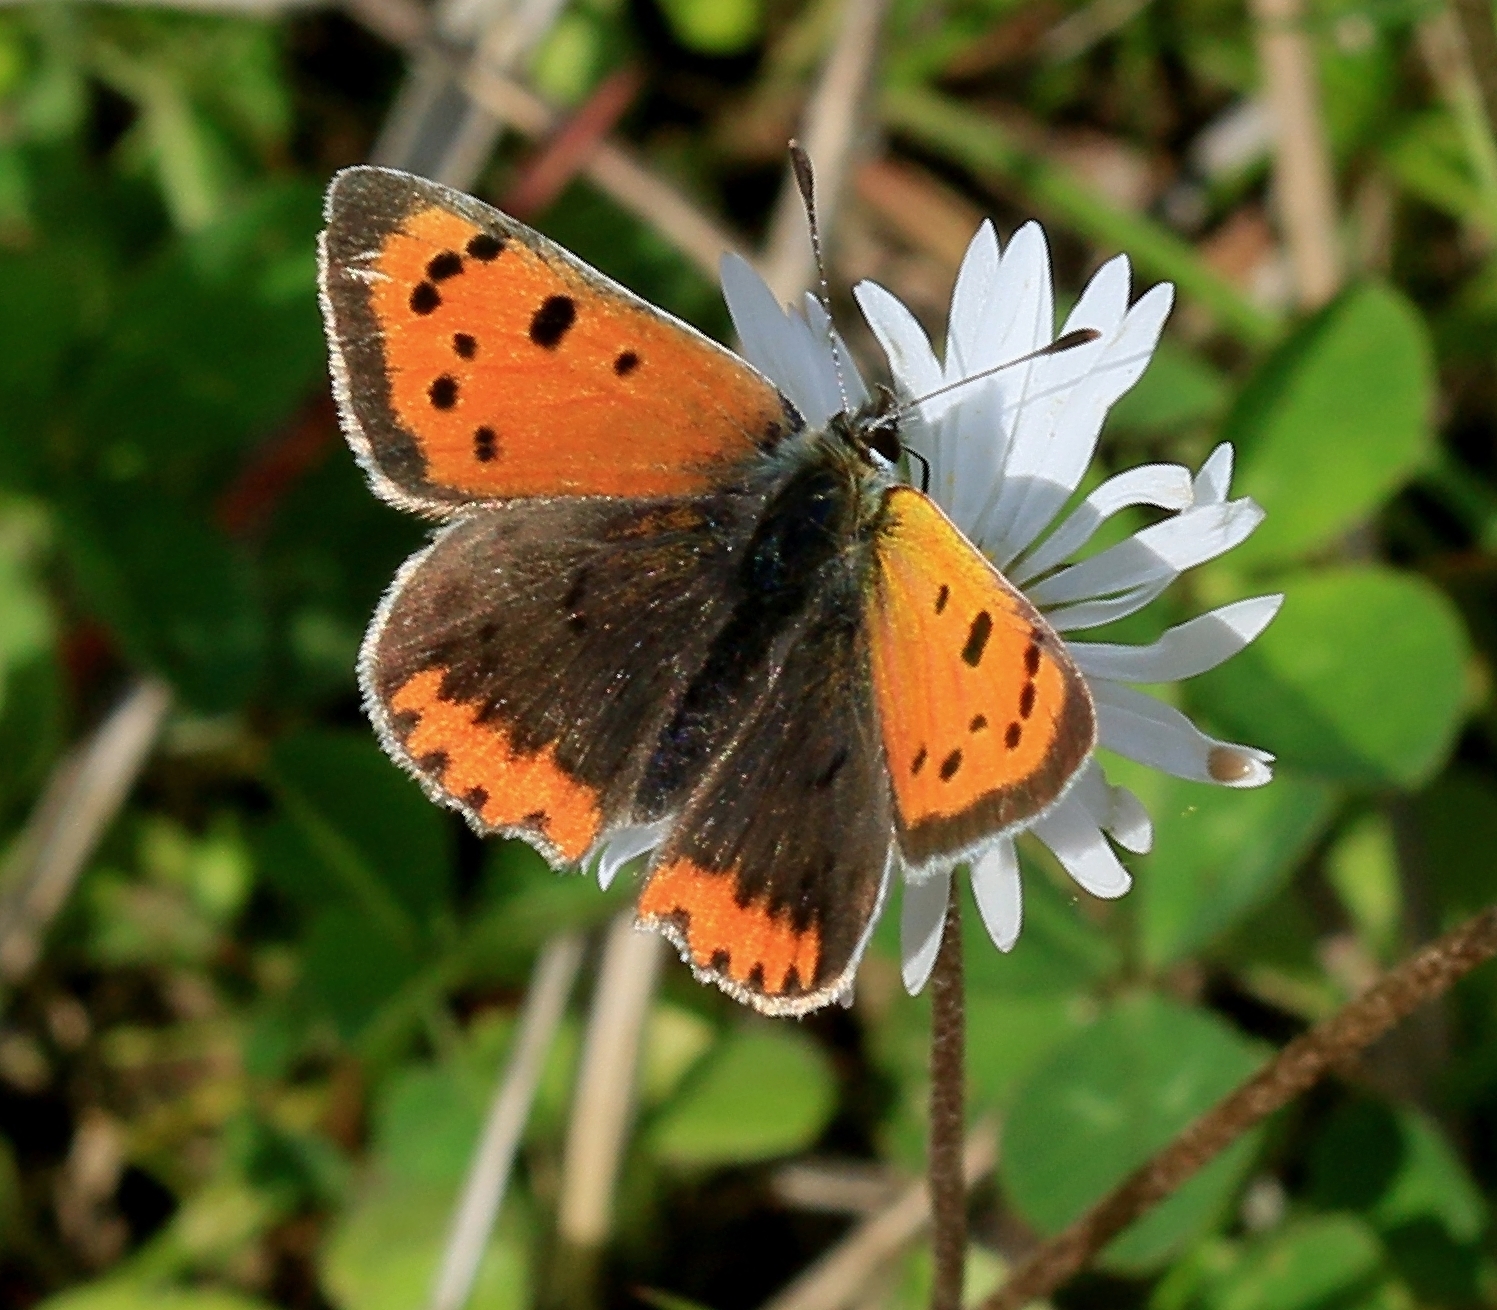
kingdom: Animalia
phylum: Arthropoda
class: Insecta
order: Lepidoptera
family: Lycaenidae
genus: Lycaena
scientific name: Lycaena phlaeas
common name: Small copper
